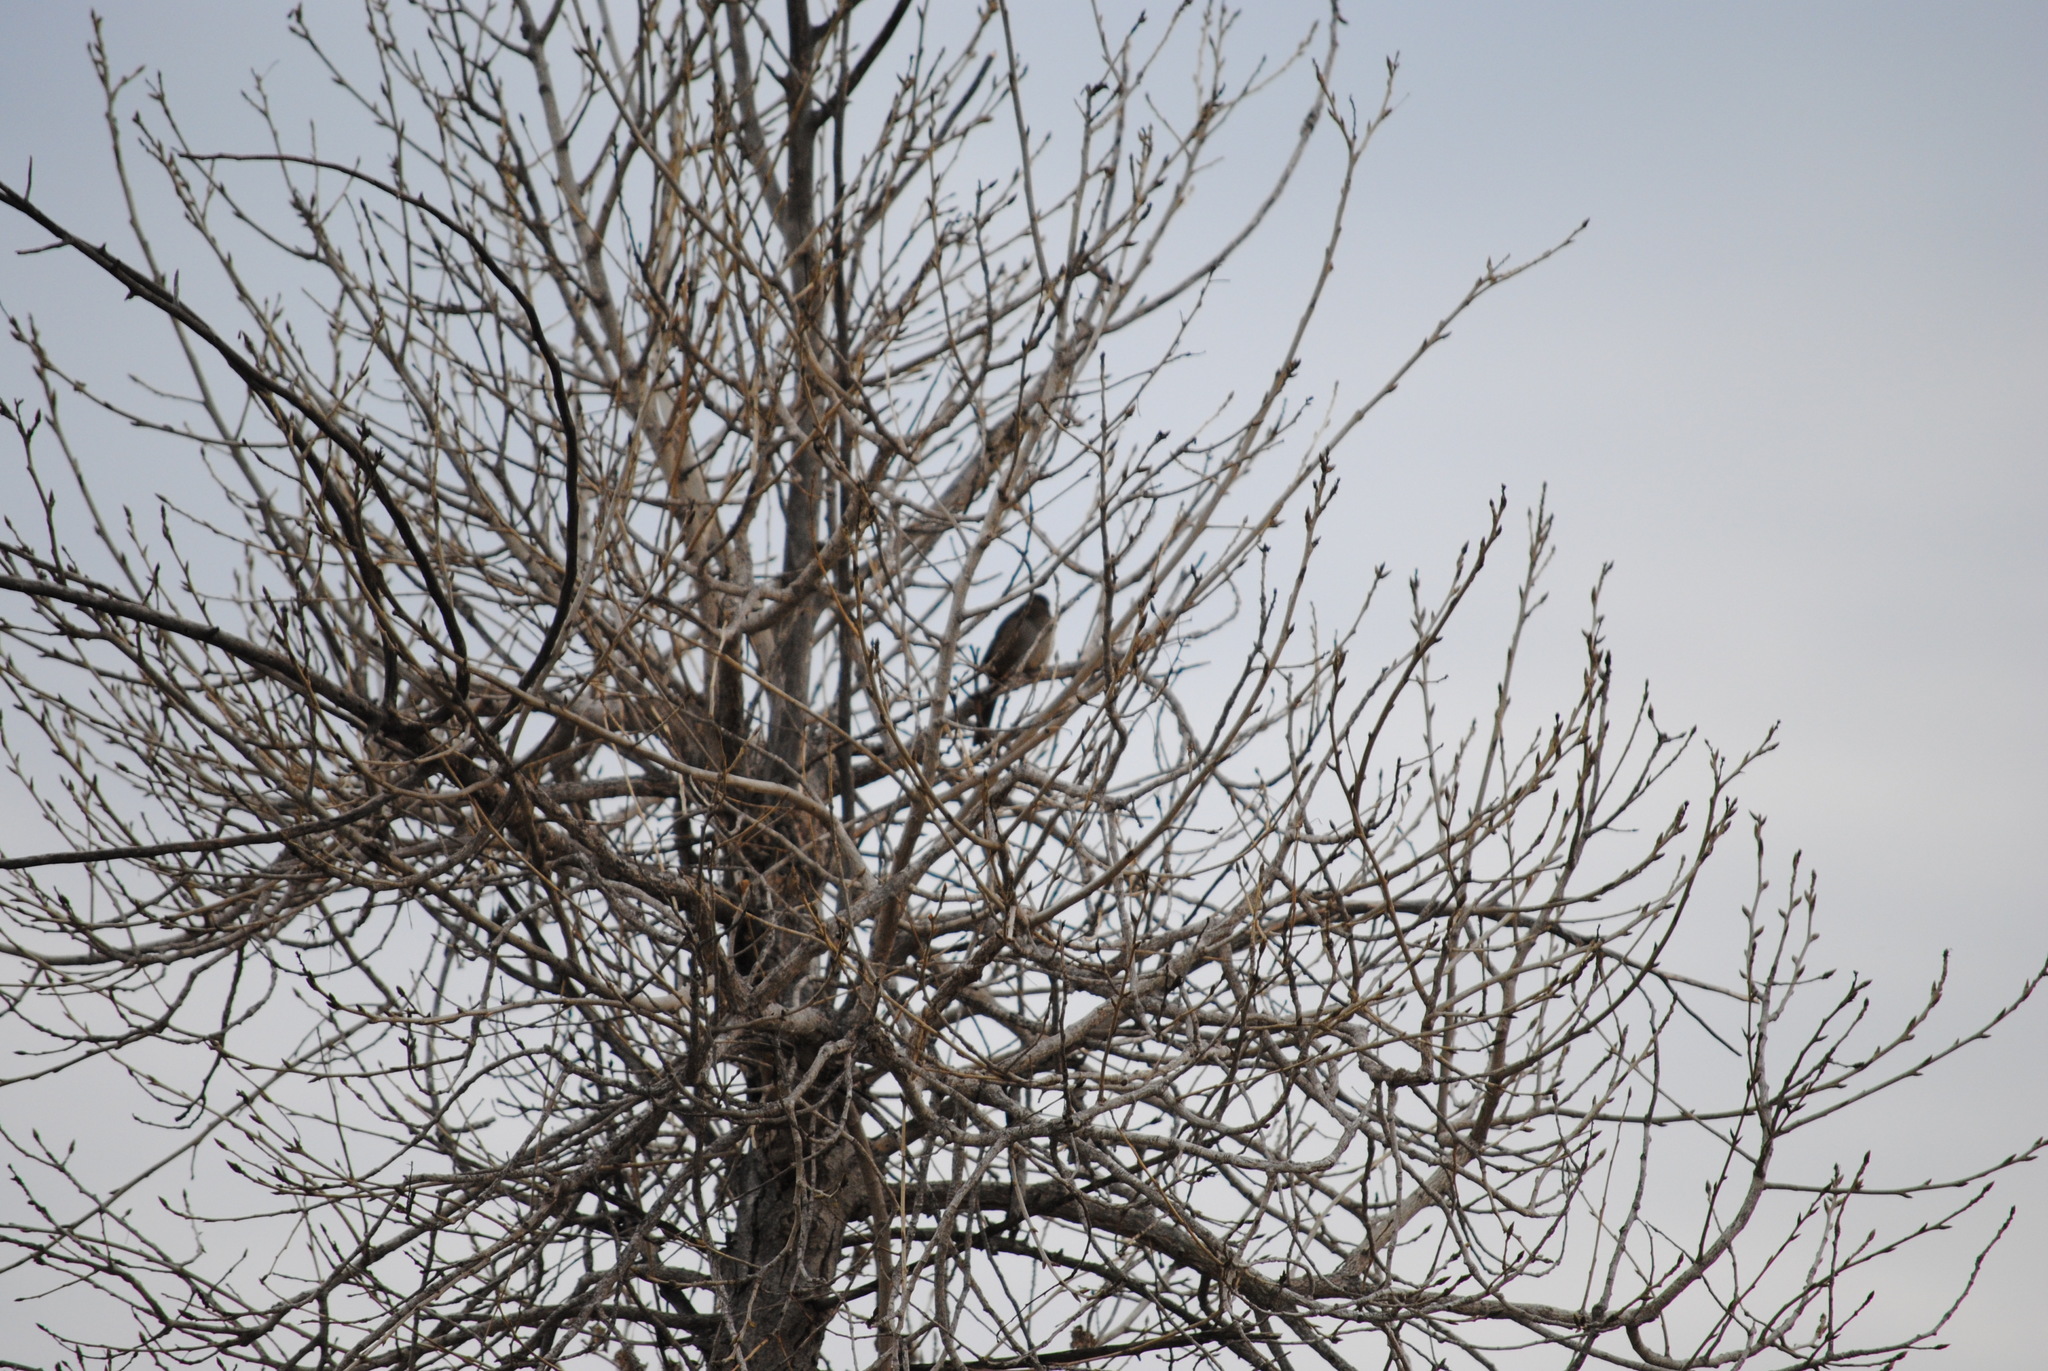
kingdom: Animalia
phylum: Chordata
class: Aves
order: Passeriformes
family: Passerellidae
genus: Melozone
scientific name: Melozone crissalis
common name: California towhee
